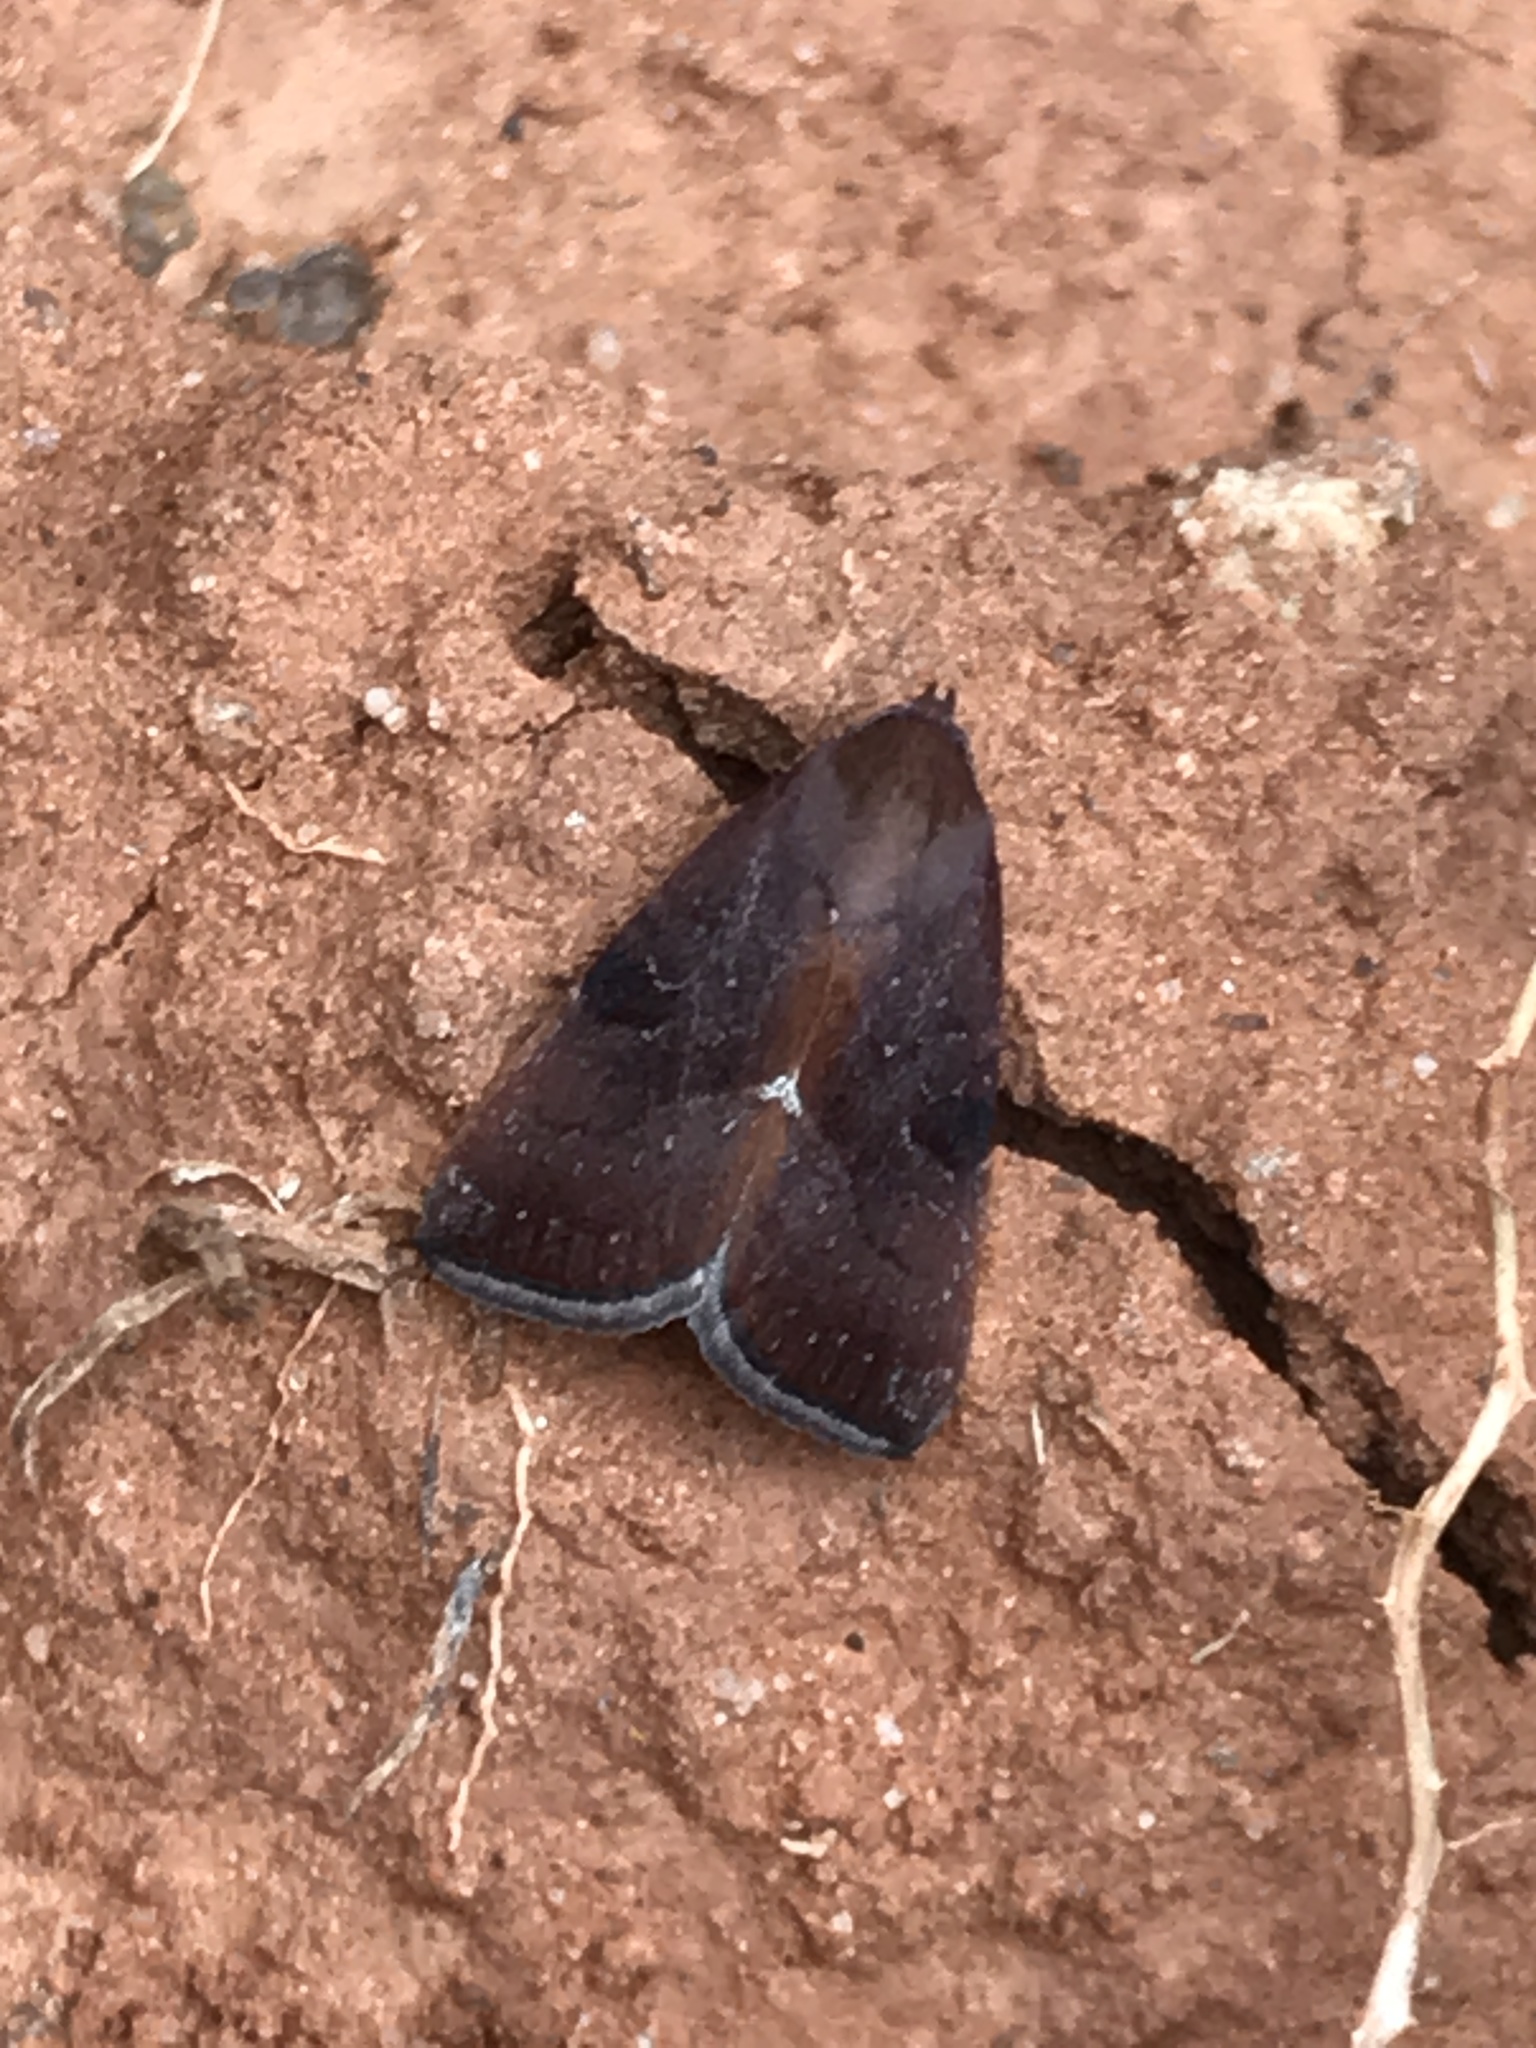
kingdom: Animalia
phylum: Arthropoda
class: Insecta
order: Lepidoptera
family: Noctuidae
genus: Galgula
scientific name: Galgula partita
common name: Wedgeling
